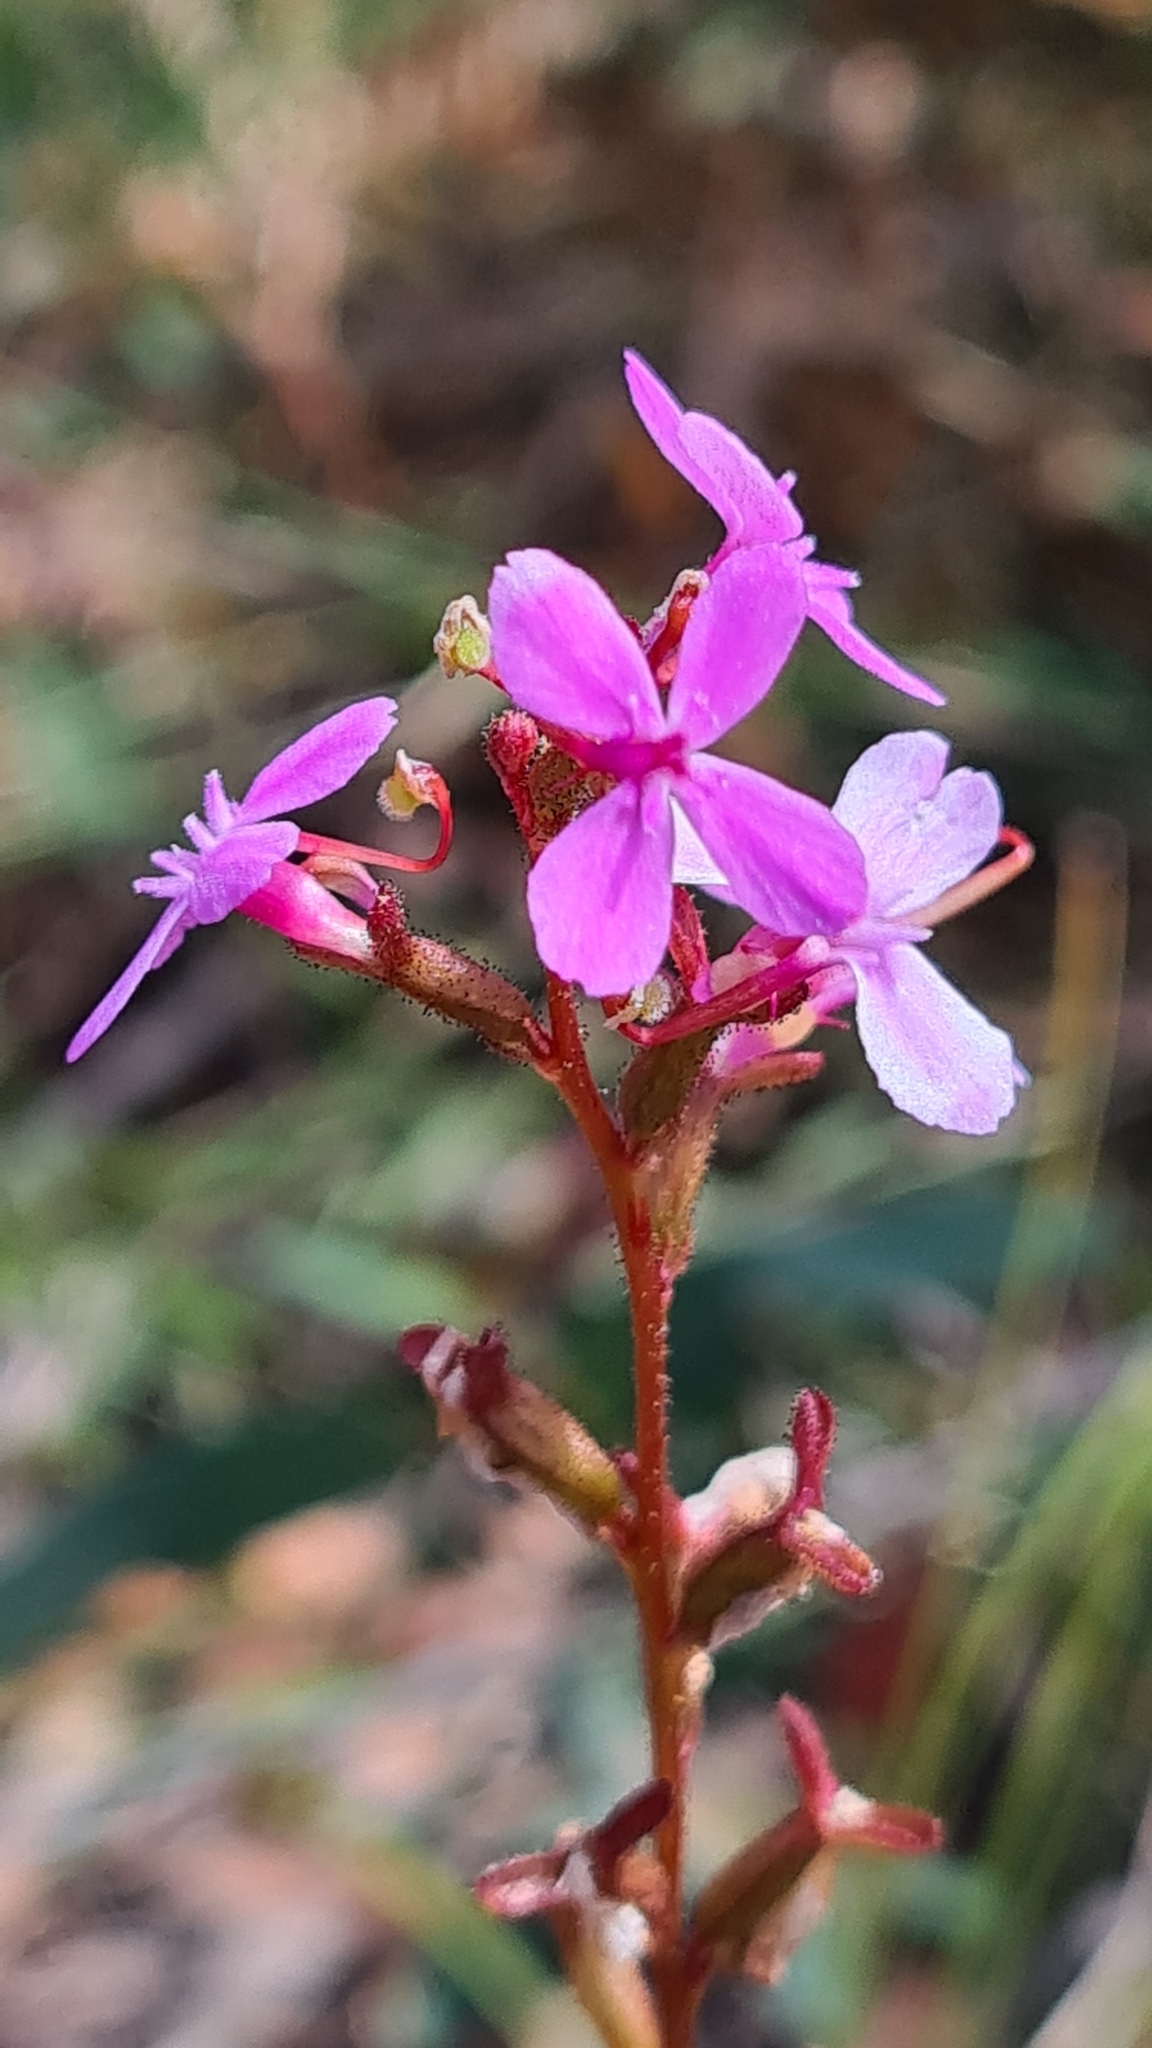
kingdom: Plantae
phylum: Tracheophyta
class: Magnoliopsida
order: Asterales
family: Stylidiaceae
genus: Stylidium
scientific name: Stylidium armeria
